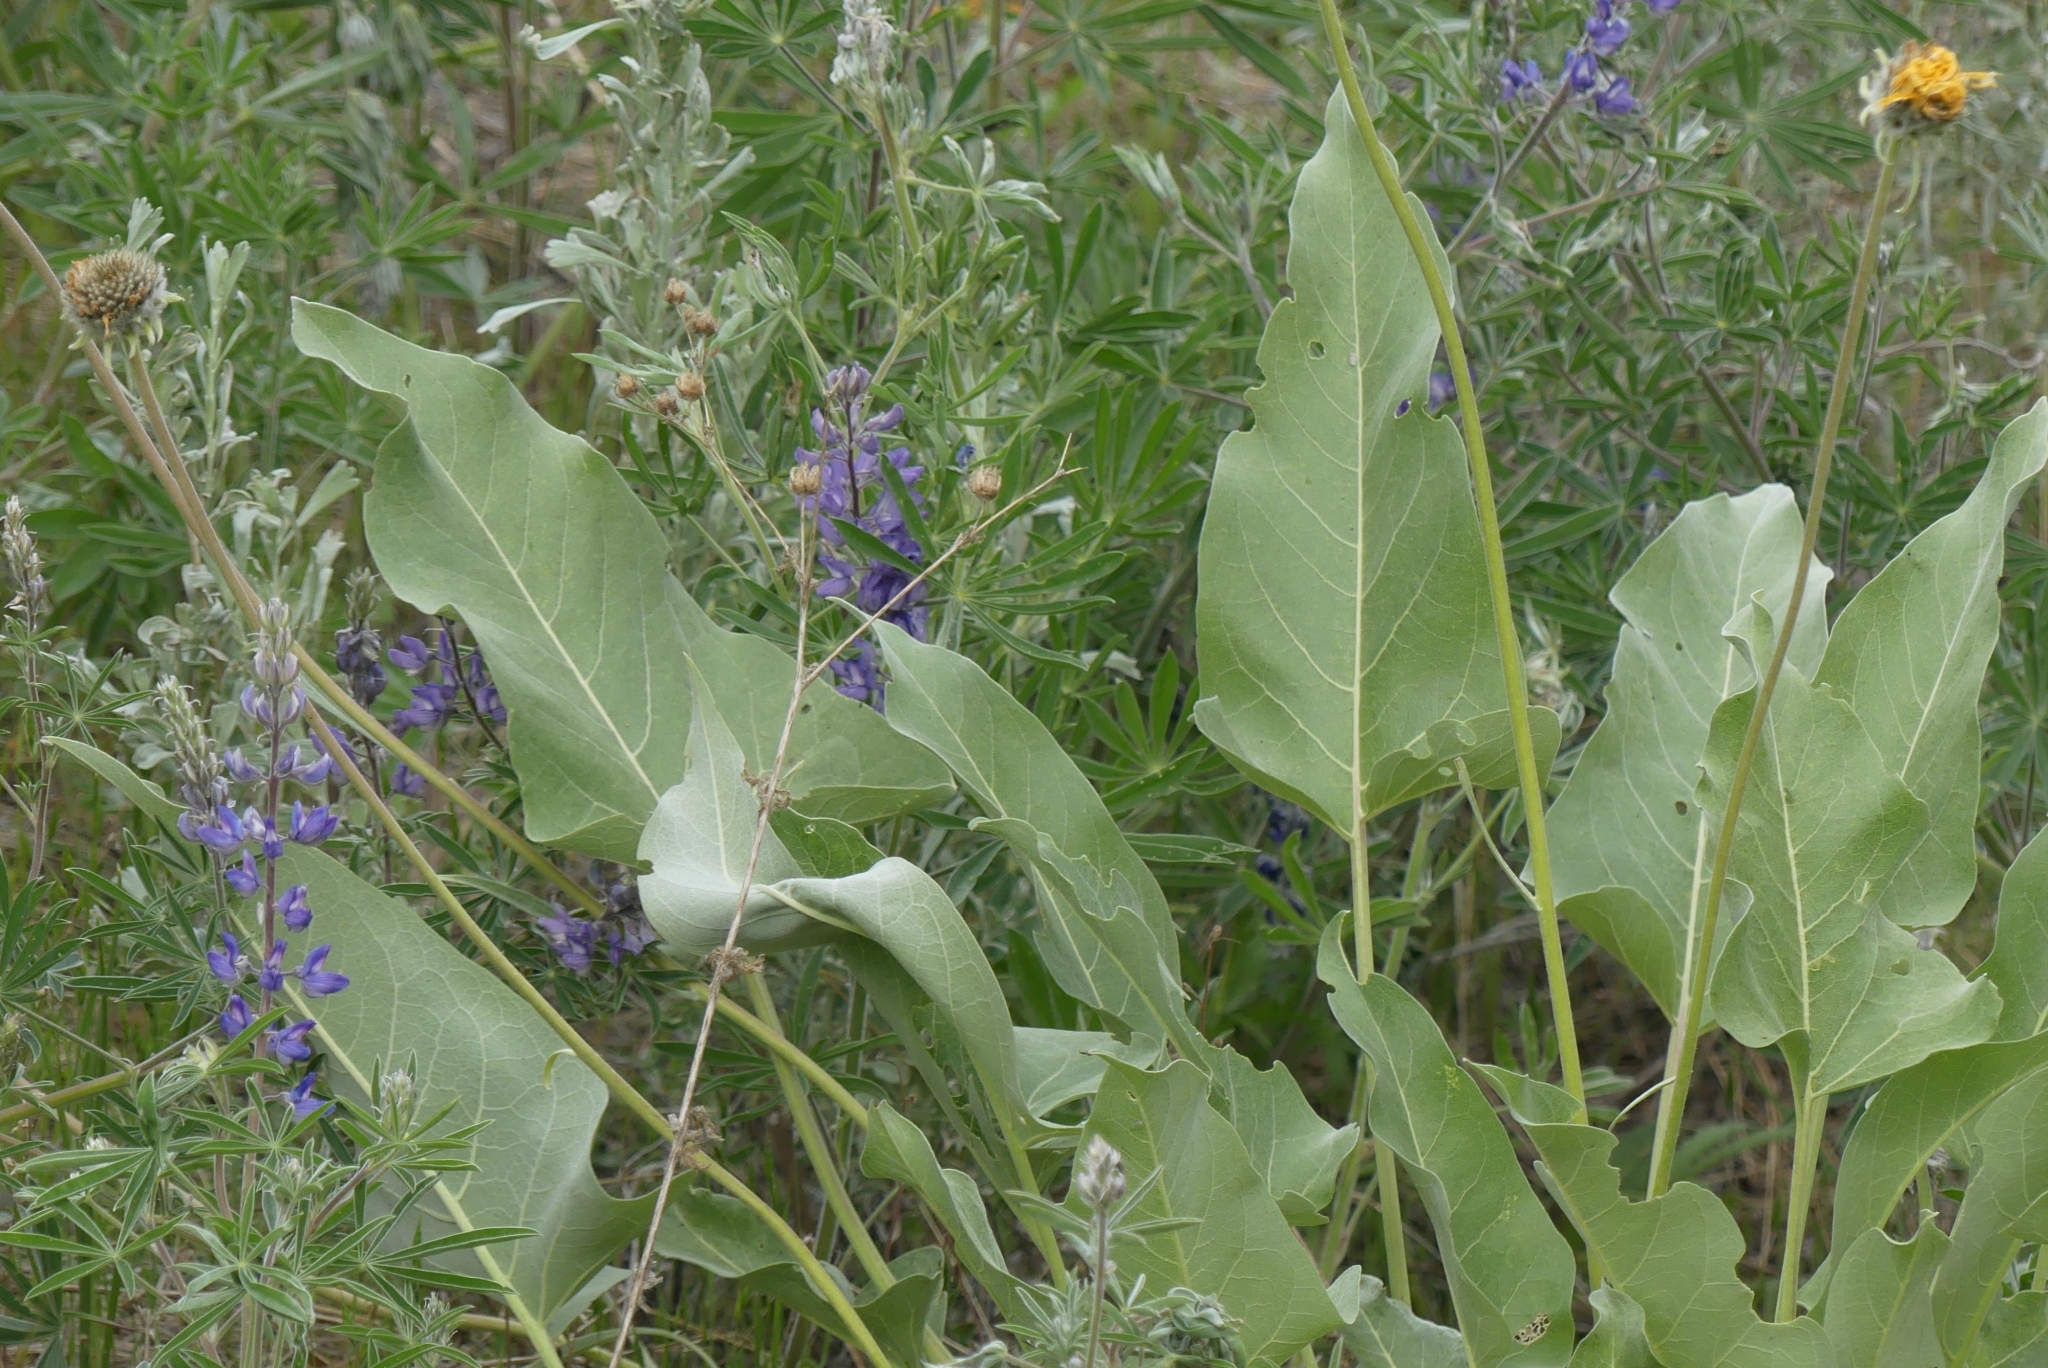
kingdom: Plantae
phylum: Tracheophyta
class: Magnoliopsida
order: Asterales
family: Asteraceae
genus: Wyethia
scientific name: Wyethia sagittata
